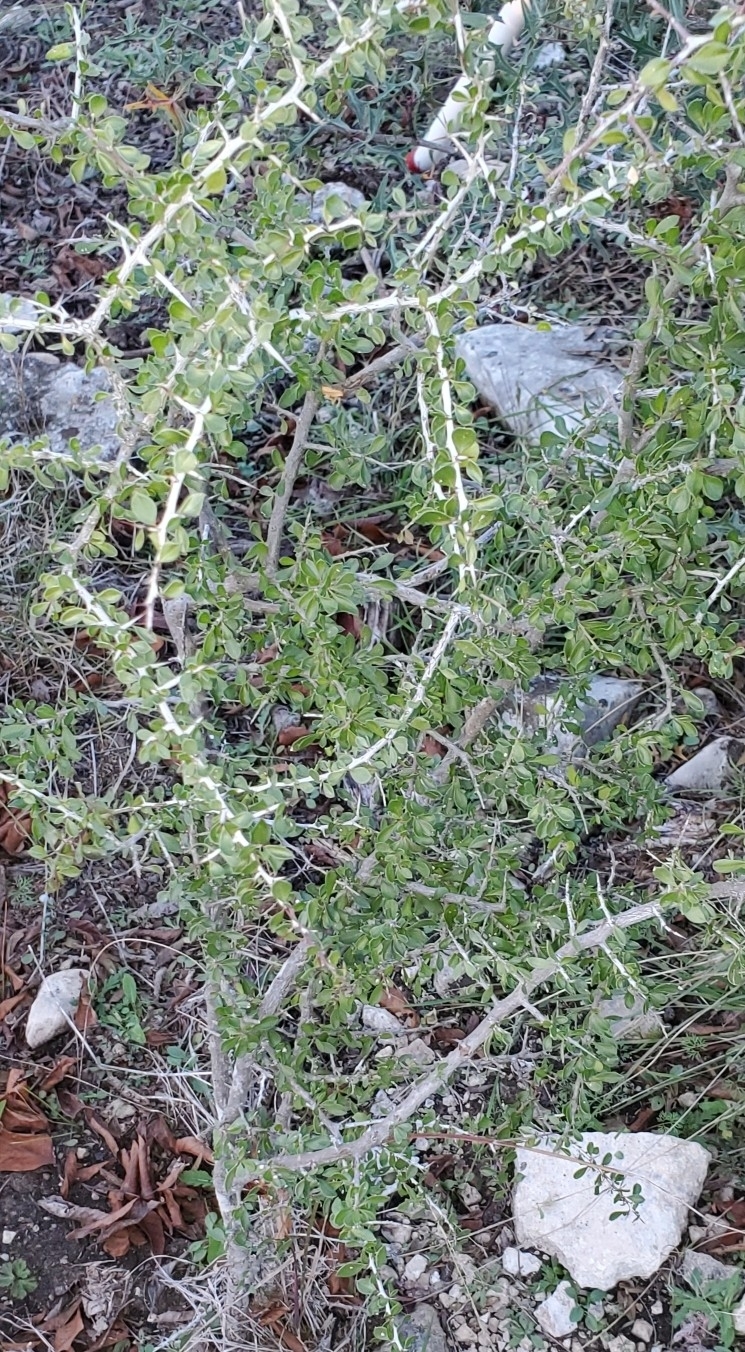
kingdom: Plantae
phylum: Tracheophyta
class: Magnoliopsida
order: Rosales
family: Rhamnaceae
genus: Condalia
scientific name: Condalia viridis
